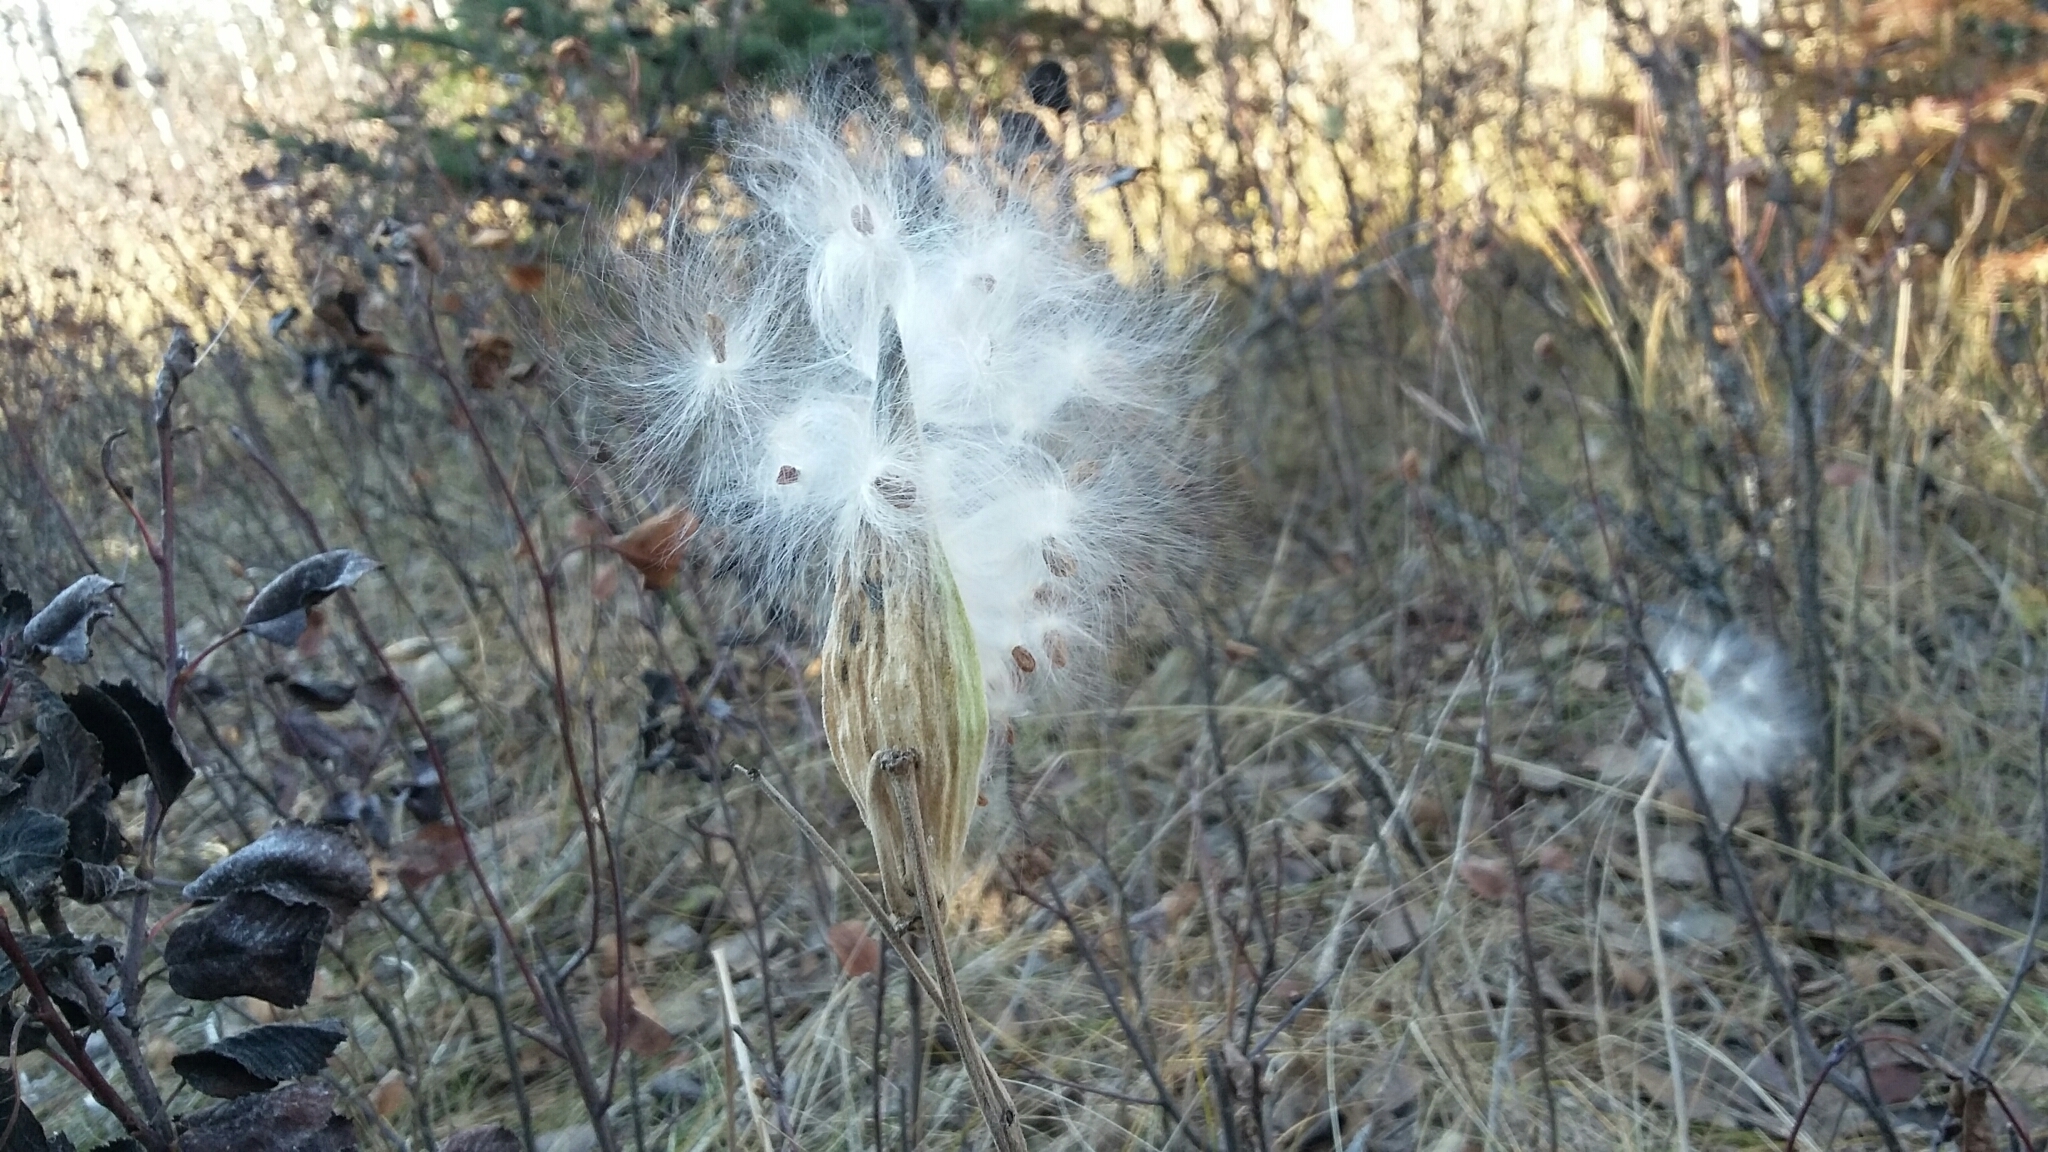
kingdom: Plantae
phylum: Tracheophyta
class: Magnoliopsida
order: Gentianales
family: Apocynaceae
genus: Asclepias
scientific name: Asclepias ovalifolia
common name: Dwarf milkweed
